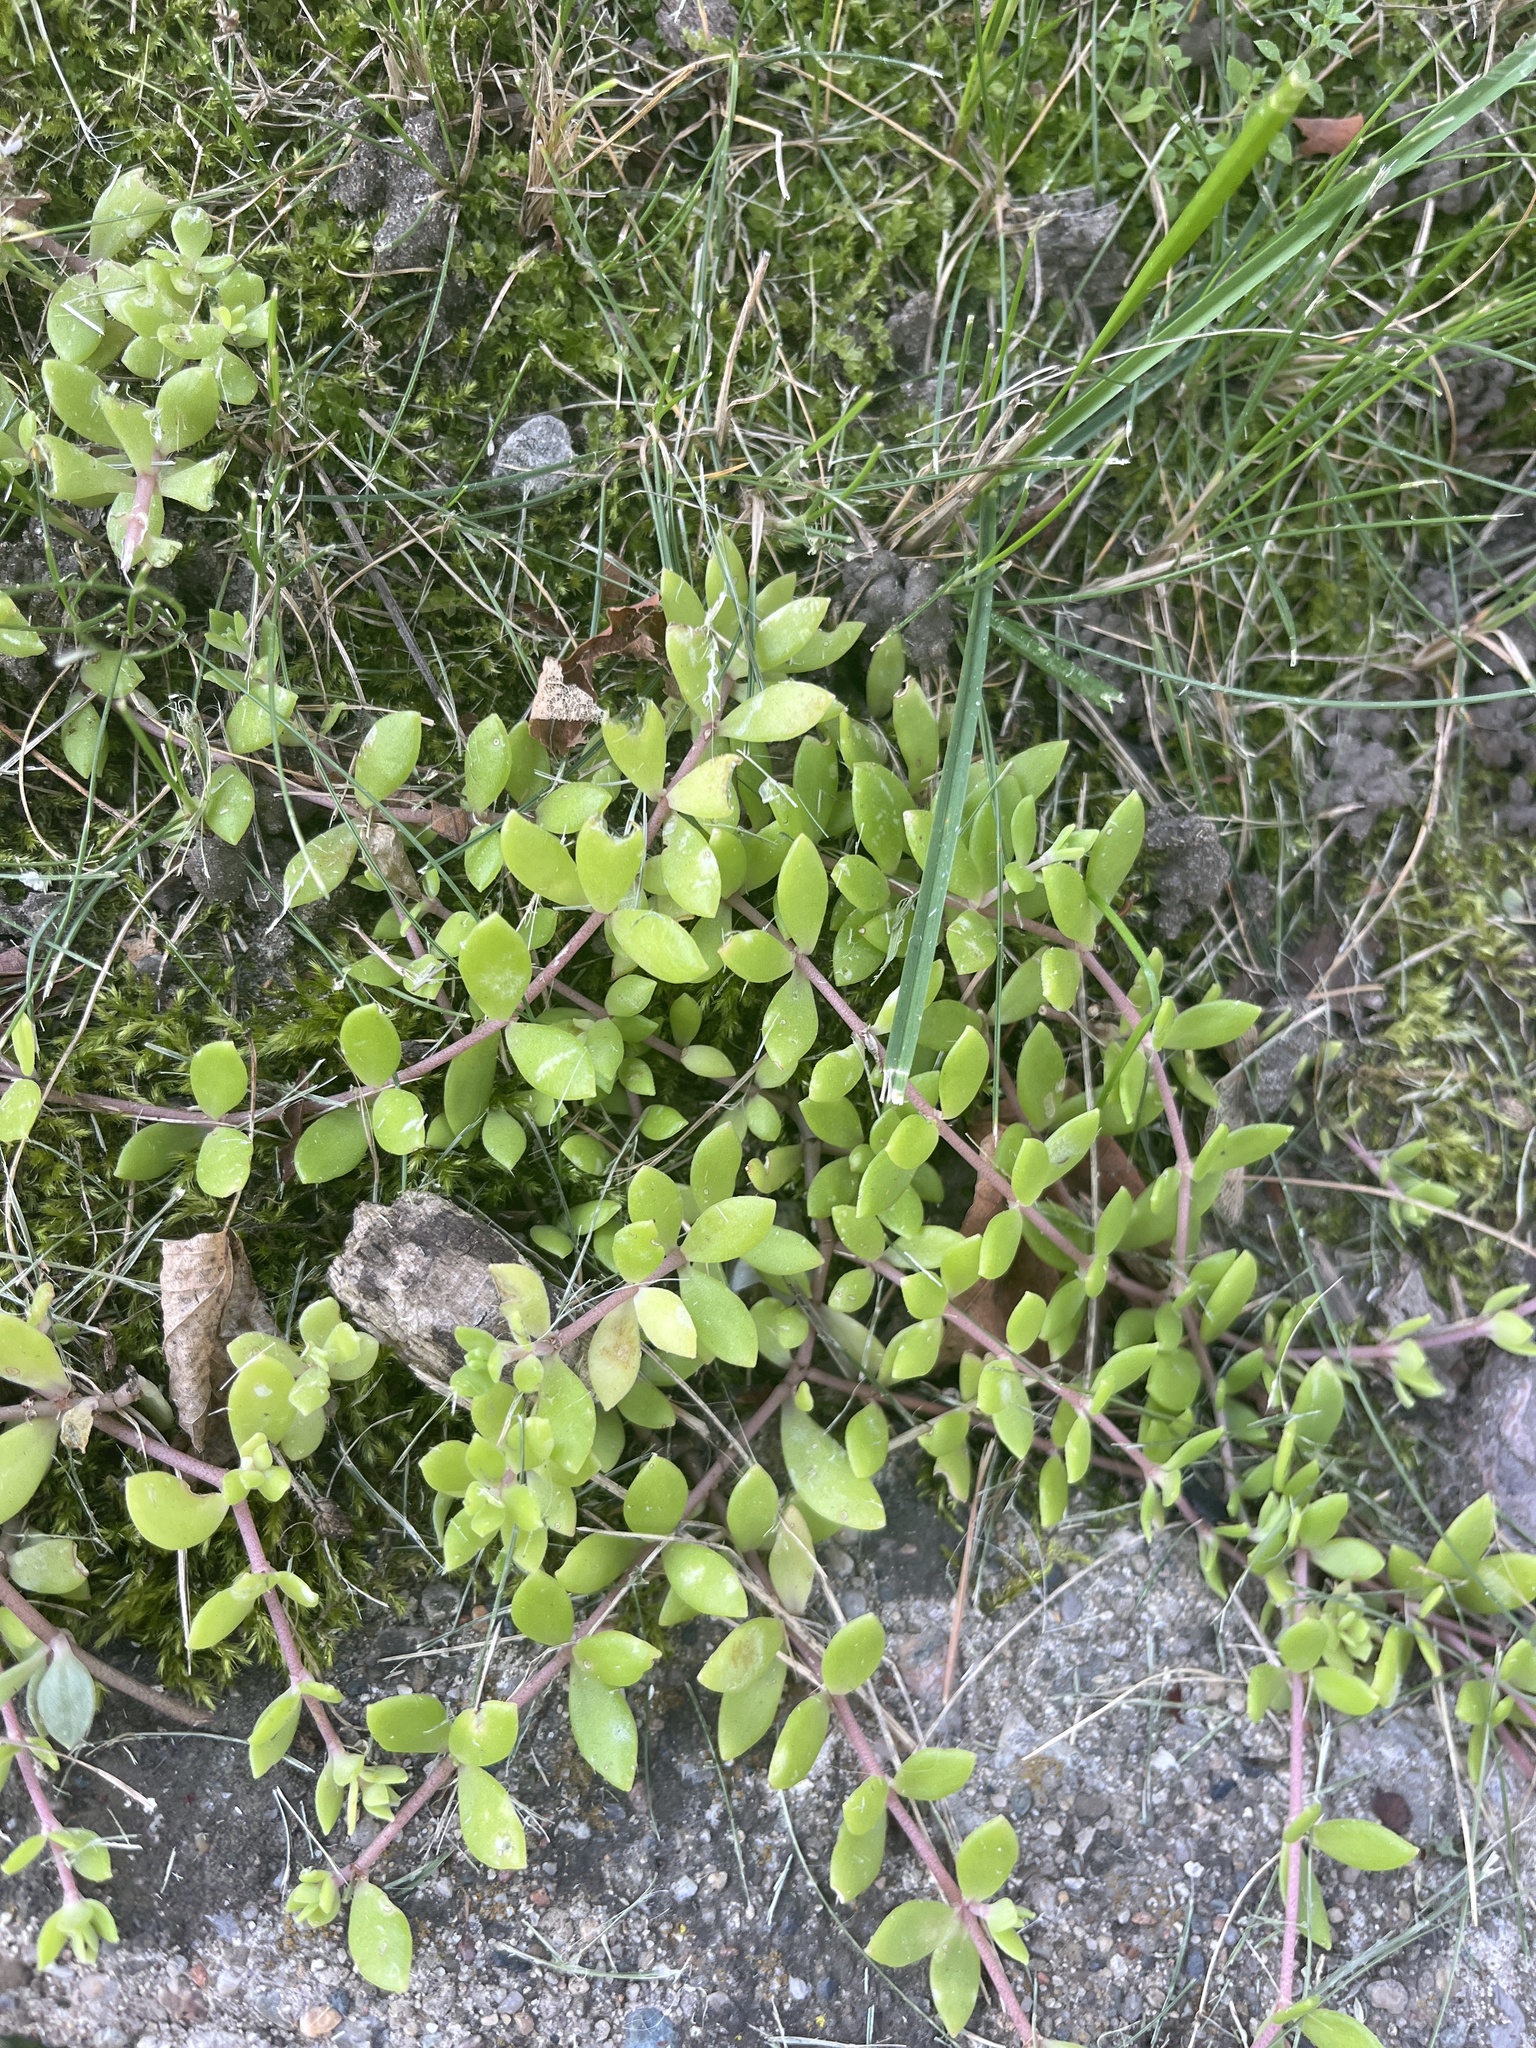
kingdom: Plantae
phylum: Tracheophyta
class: Magnoliopsida
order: Saxifragales
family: Crassulaceae
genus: Sedum
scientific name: Sedum sarmentosum
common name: Stringy stonecrop
